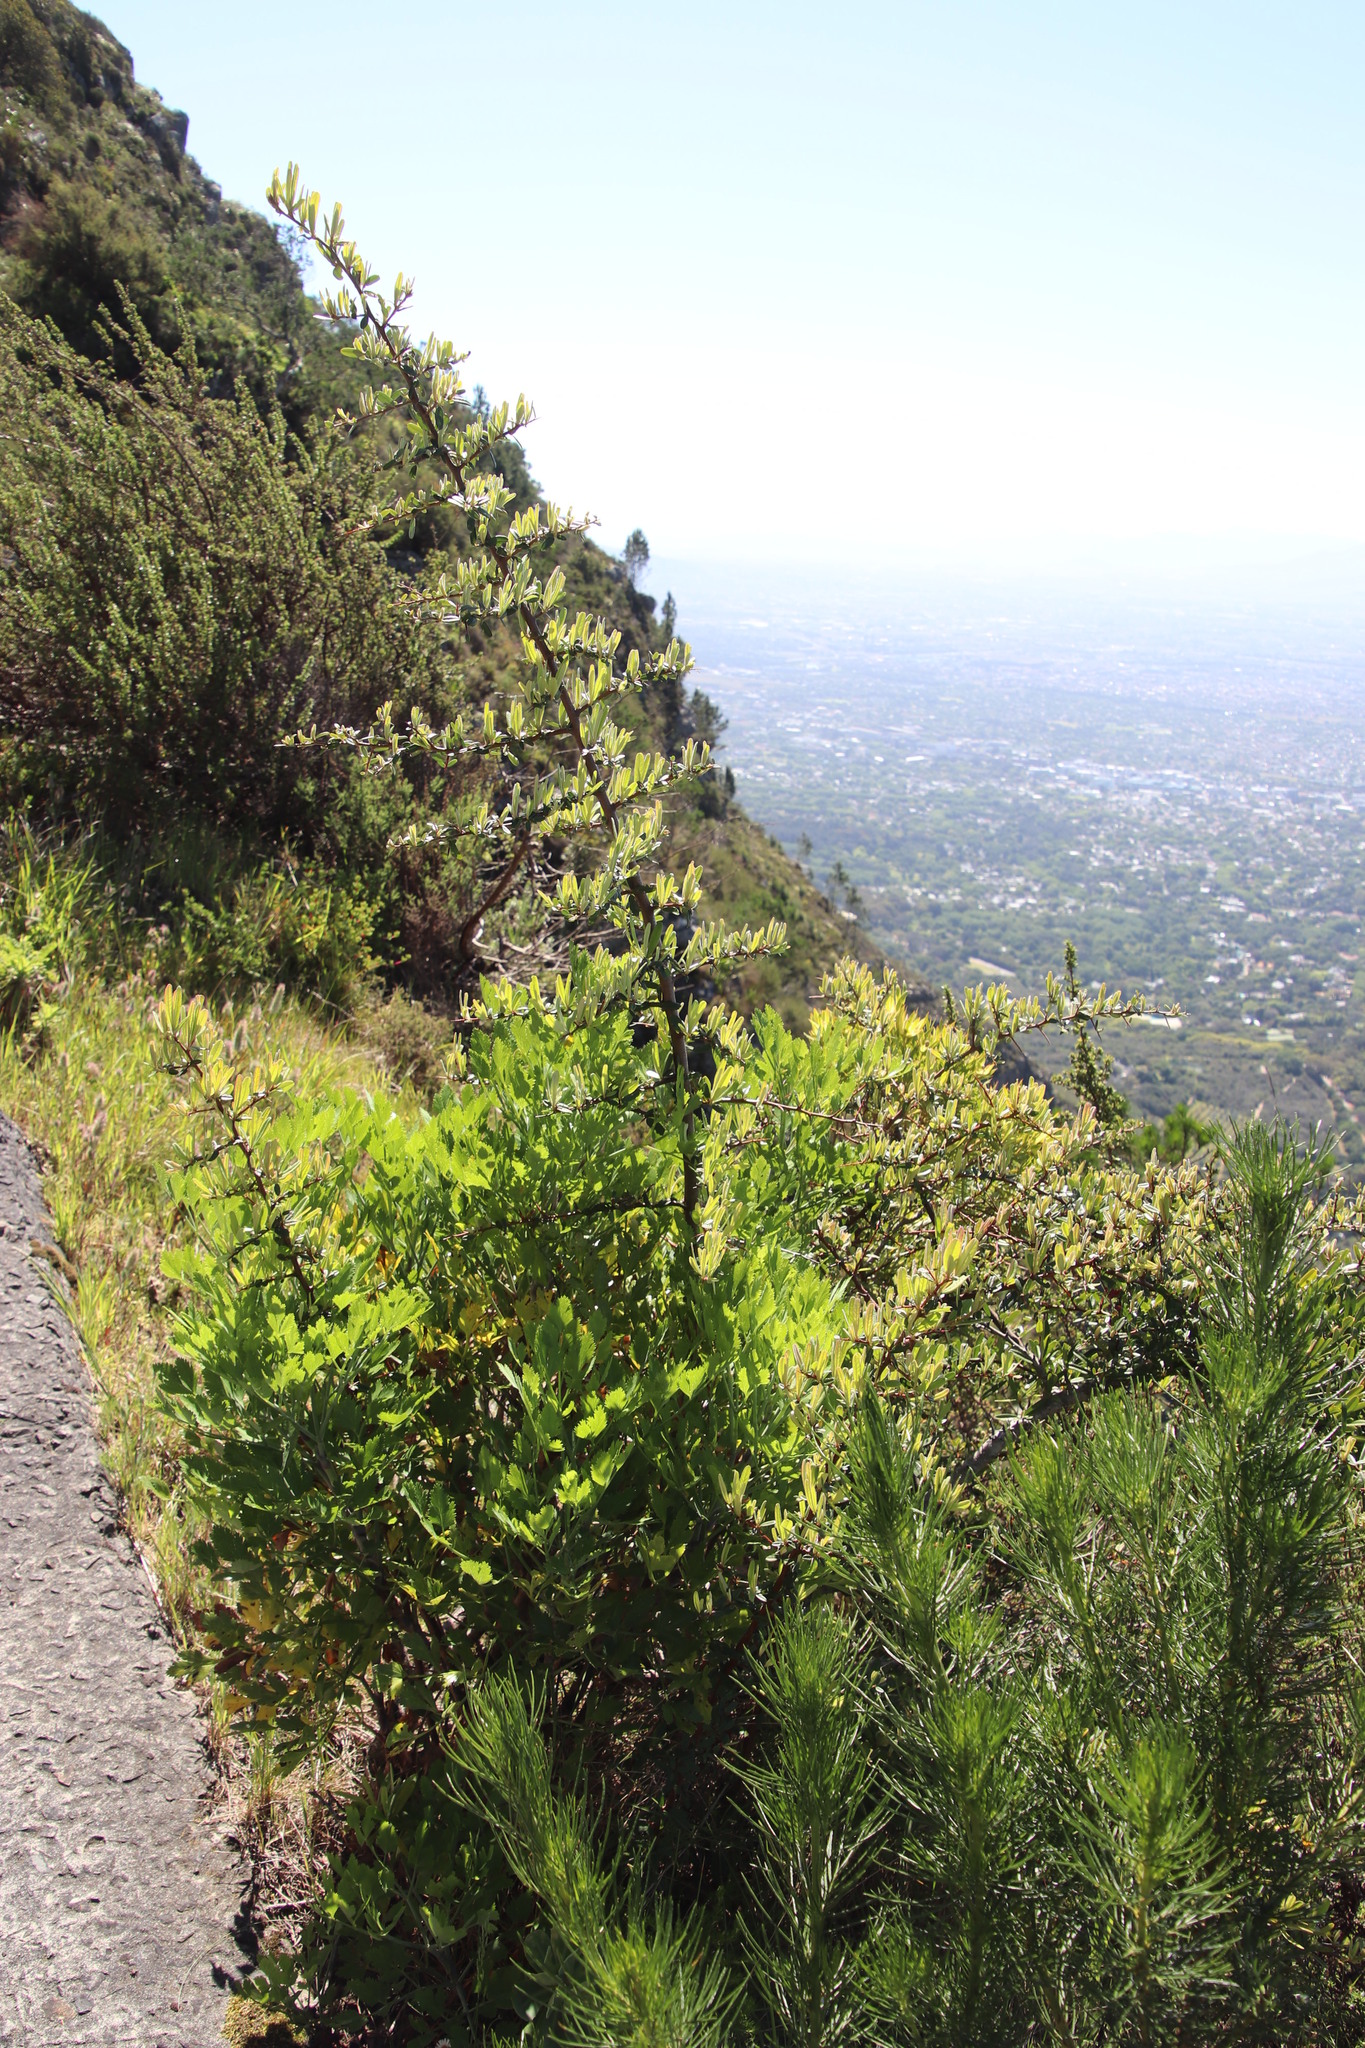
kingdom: Plantae
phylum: Tracheophyta
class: Magnoliopsida
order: Rosales
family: Rosaceae
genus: Pyracantha
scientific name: Pyracantha angustifolia
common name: Narrowleaf firethorn
